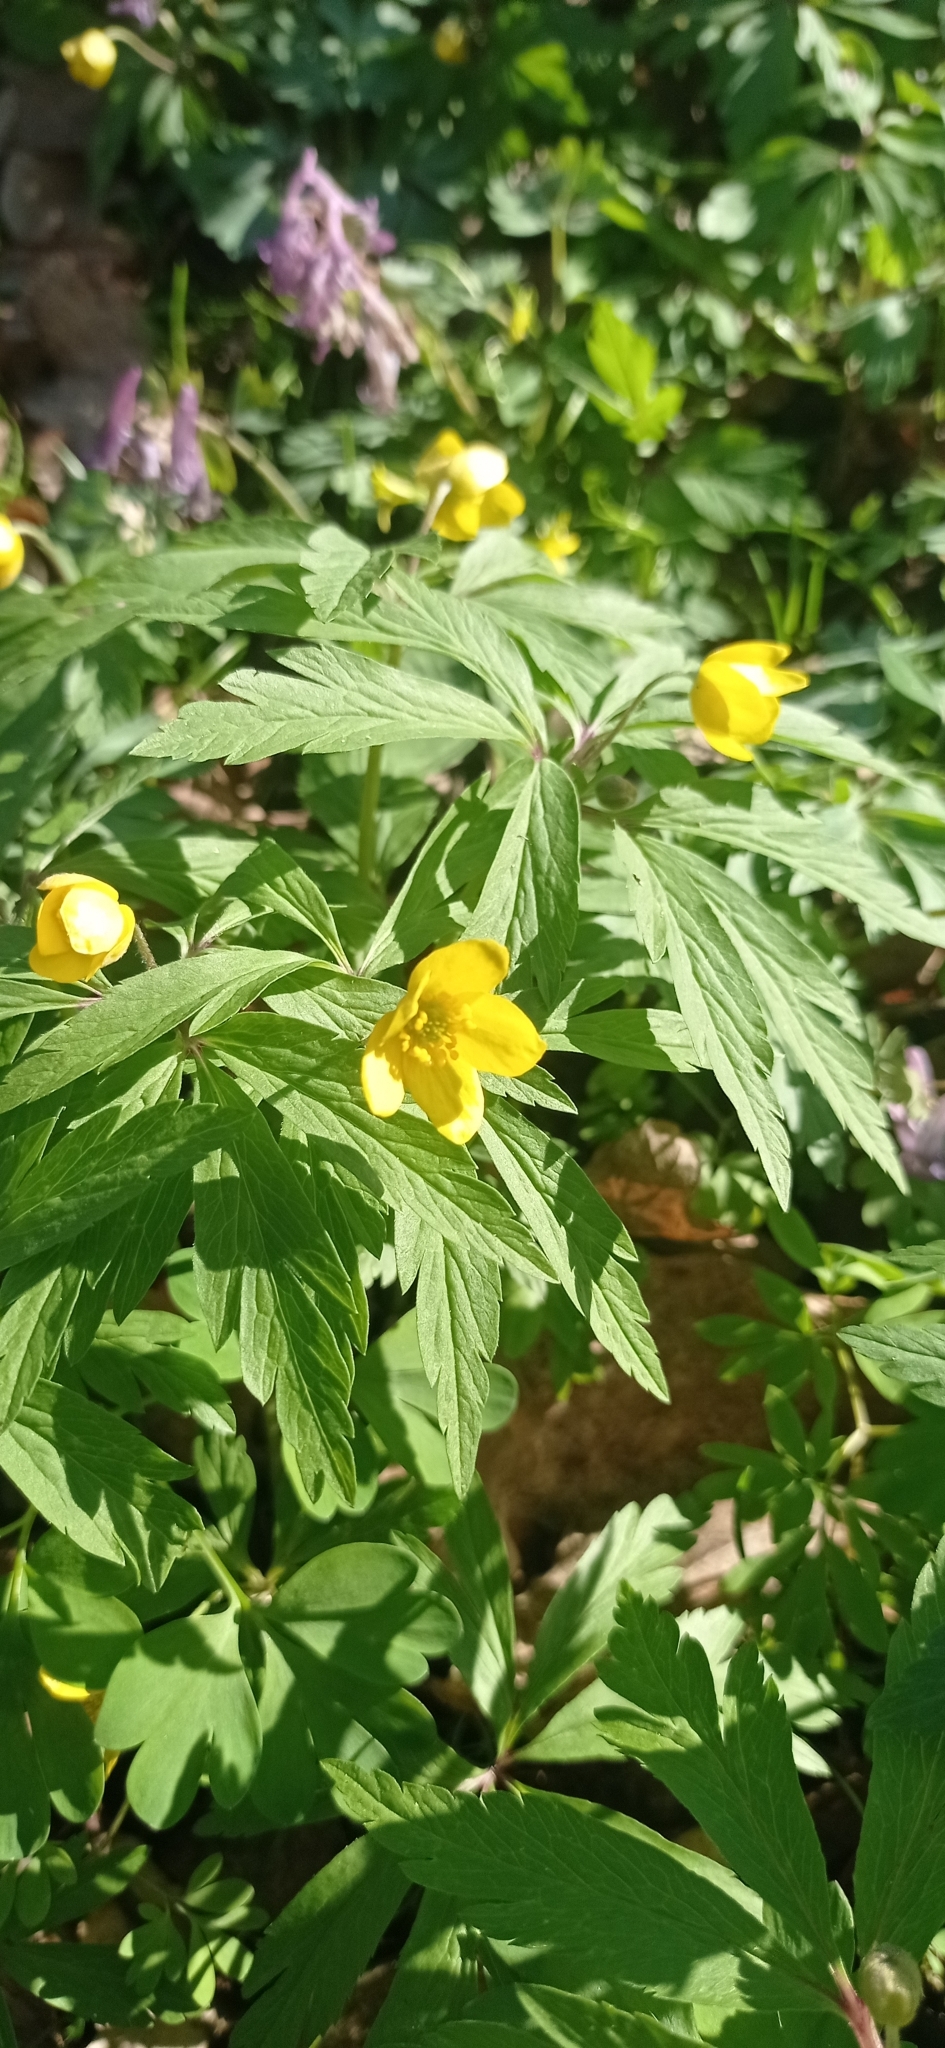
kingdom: Plantae
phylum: Tracheophyta
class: Magnoliopsida
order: Ranunculales
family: Ranunculaceae
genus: Anemone
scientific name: Anemone ranunculoides
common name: Yellow anemone
